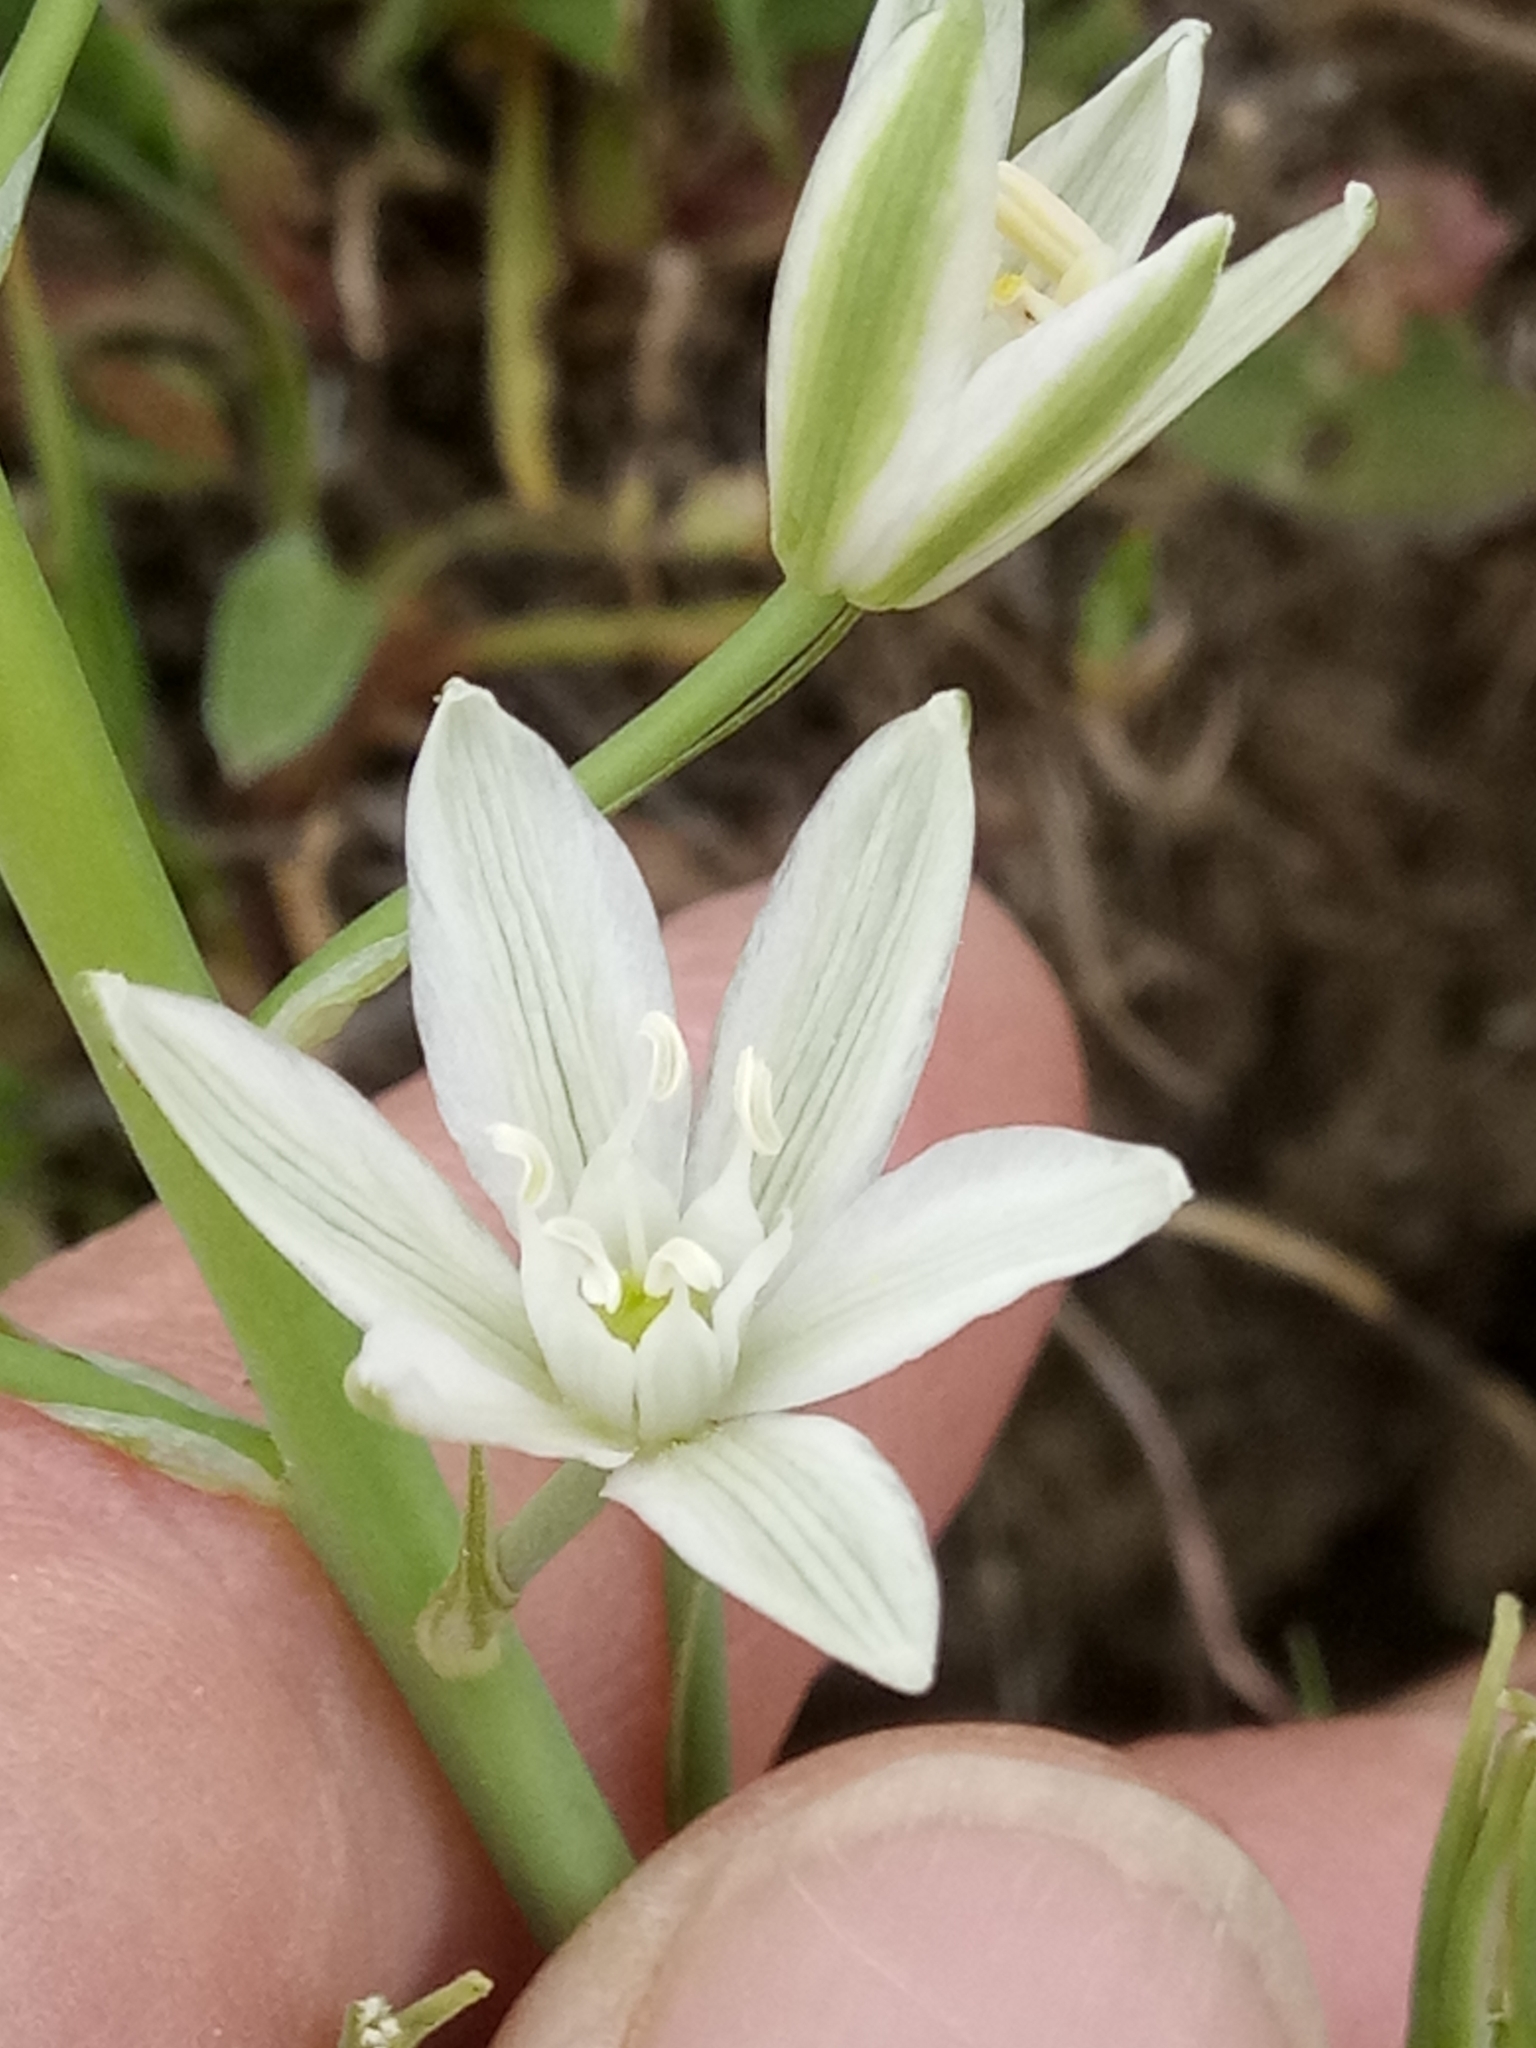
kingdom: Plantae
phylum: Tracheophyta
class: Liliopsida
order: Asparagales
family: Asparagaceae
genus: Ornithogalum
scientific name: Ornithogalum narbonense
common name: Bath-asparagus
